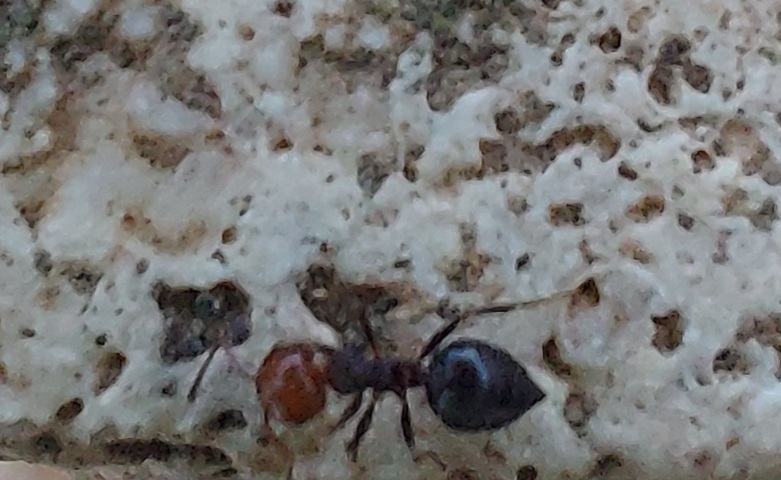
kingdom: Animalia
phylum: Arthropoda
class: Insecta
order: Hymenoptera
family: Formicidae
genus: Crematogaster
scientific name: Crematogaster scutellaris
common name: Fourmi du liège
